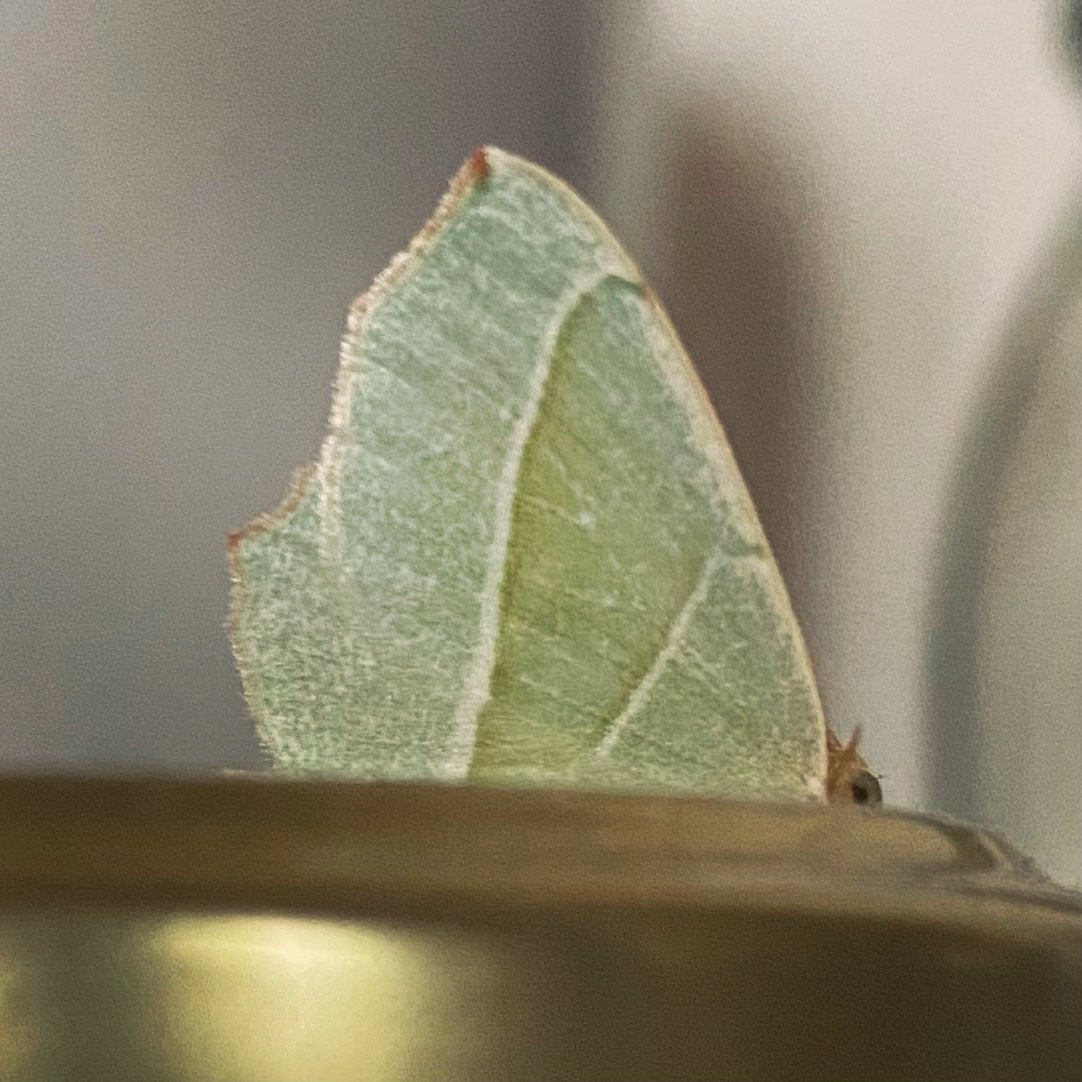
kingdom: Animalia
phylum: Arthropoda
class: Insecta
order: Lepidoptera
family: Geometridae
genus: Campaea
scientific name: Campaea margaritaria
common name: Light emerald
